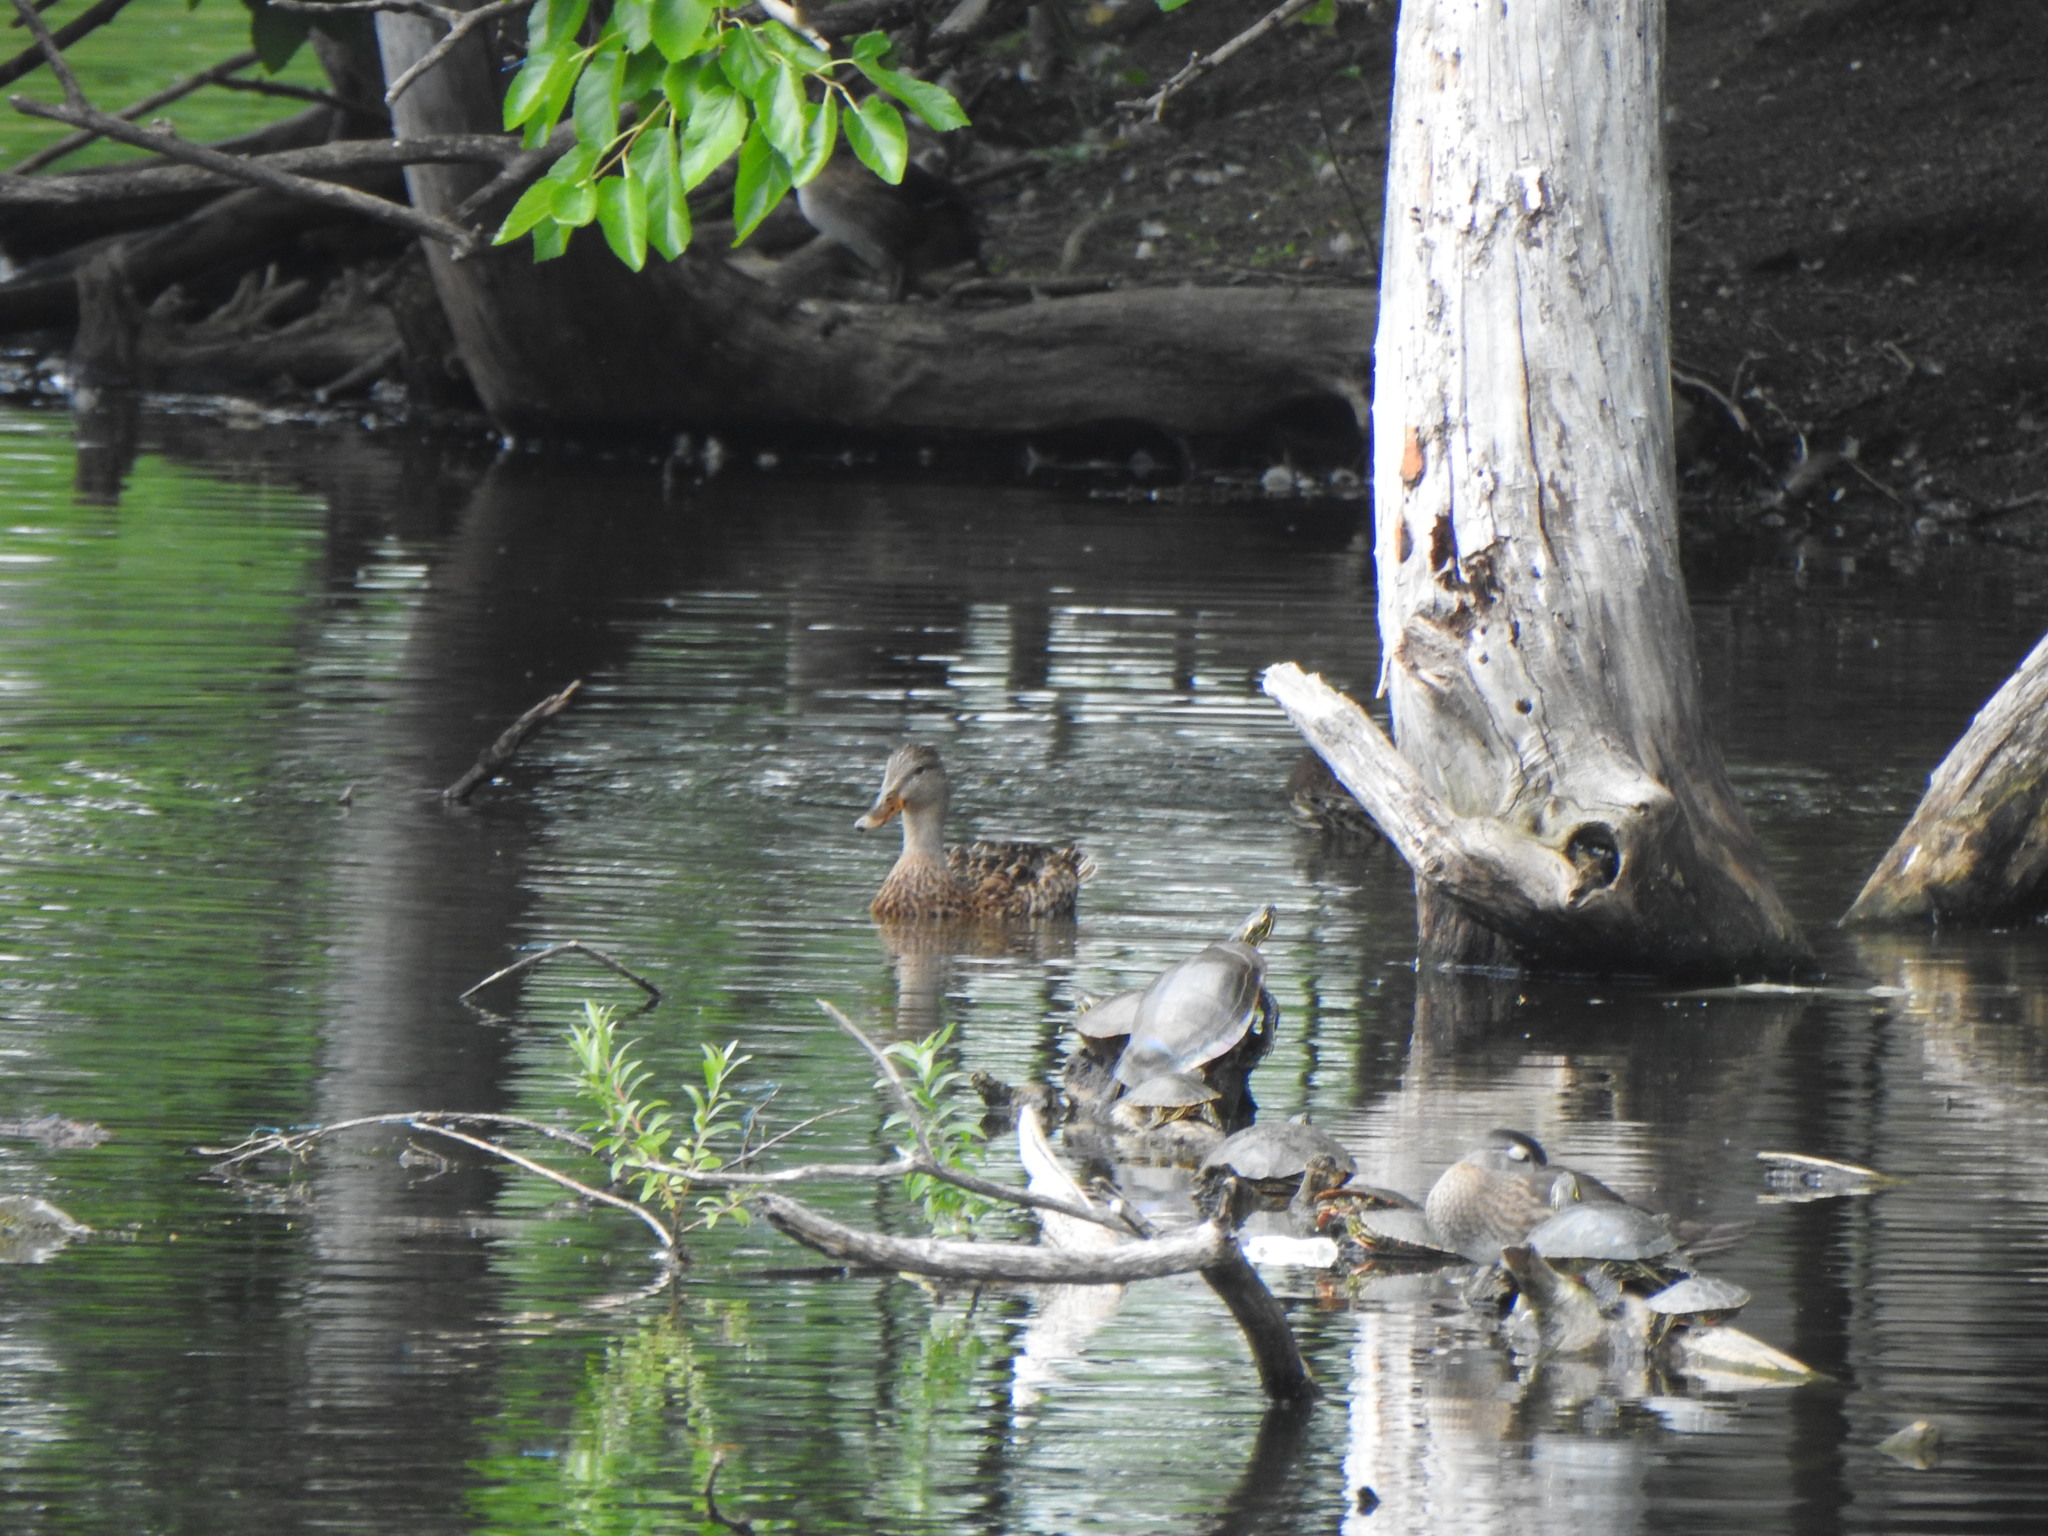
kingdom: Animalia
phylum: Chordata
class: Testudines
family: Emydidae
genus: Chrysemys
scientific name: Chrysemys picta
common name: Painted turtle
